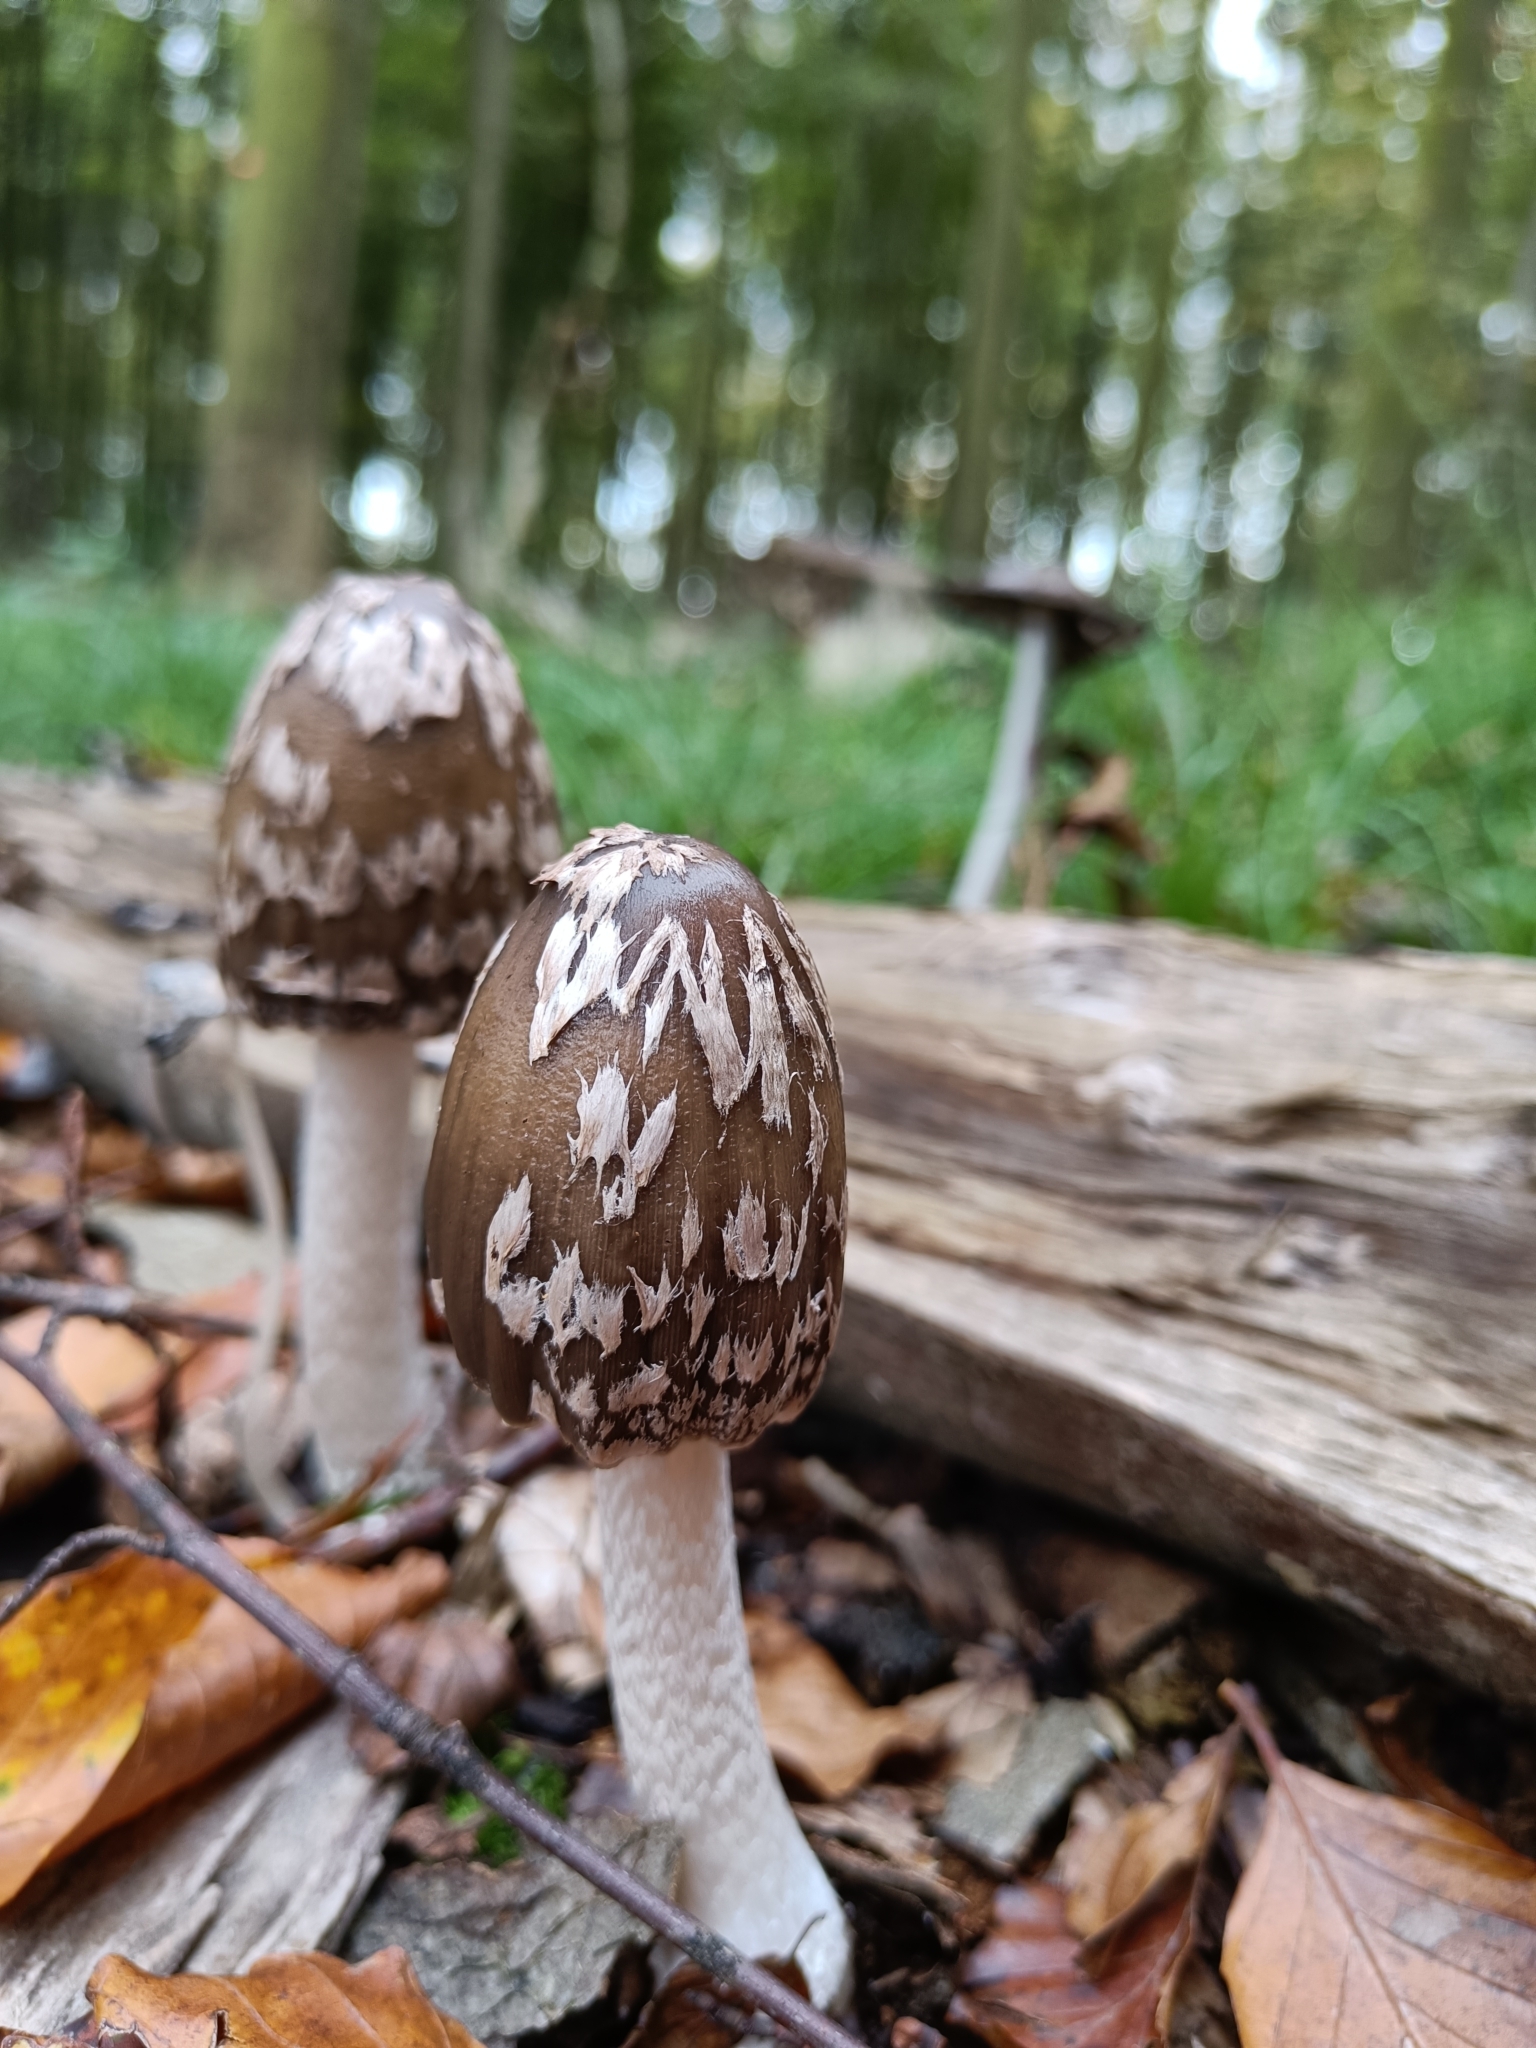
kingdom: Fungi
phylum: Basidiomycota
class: Agaricomycetes
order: Agaricales
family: Psathyrellaceae
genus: Coprinopsis
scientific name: Coprinopsis picacea
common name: Magpie inkcap
